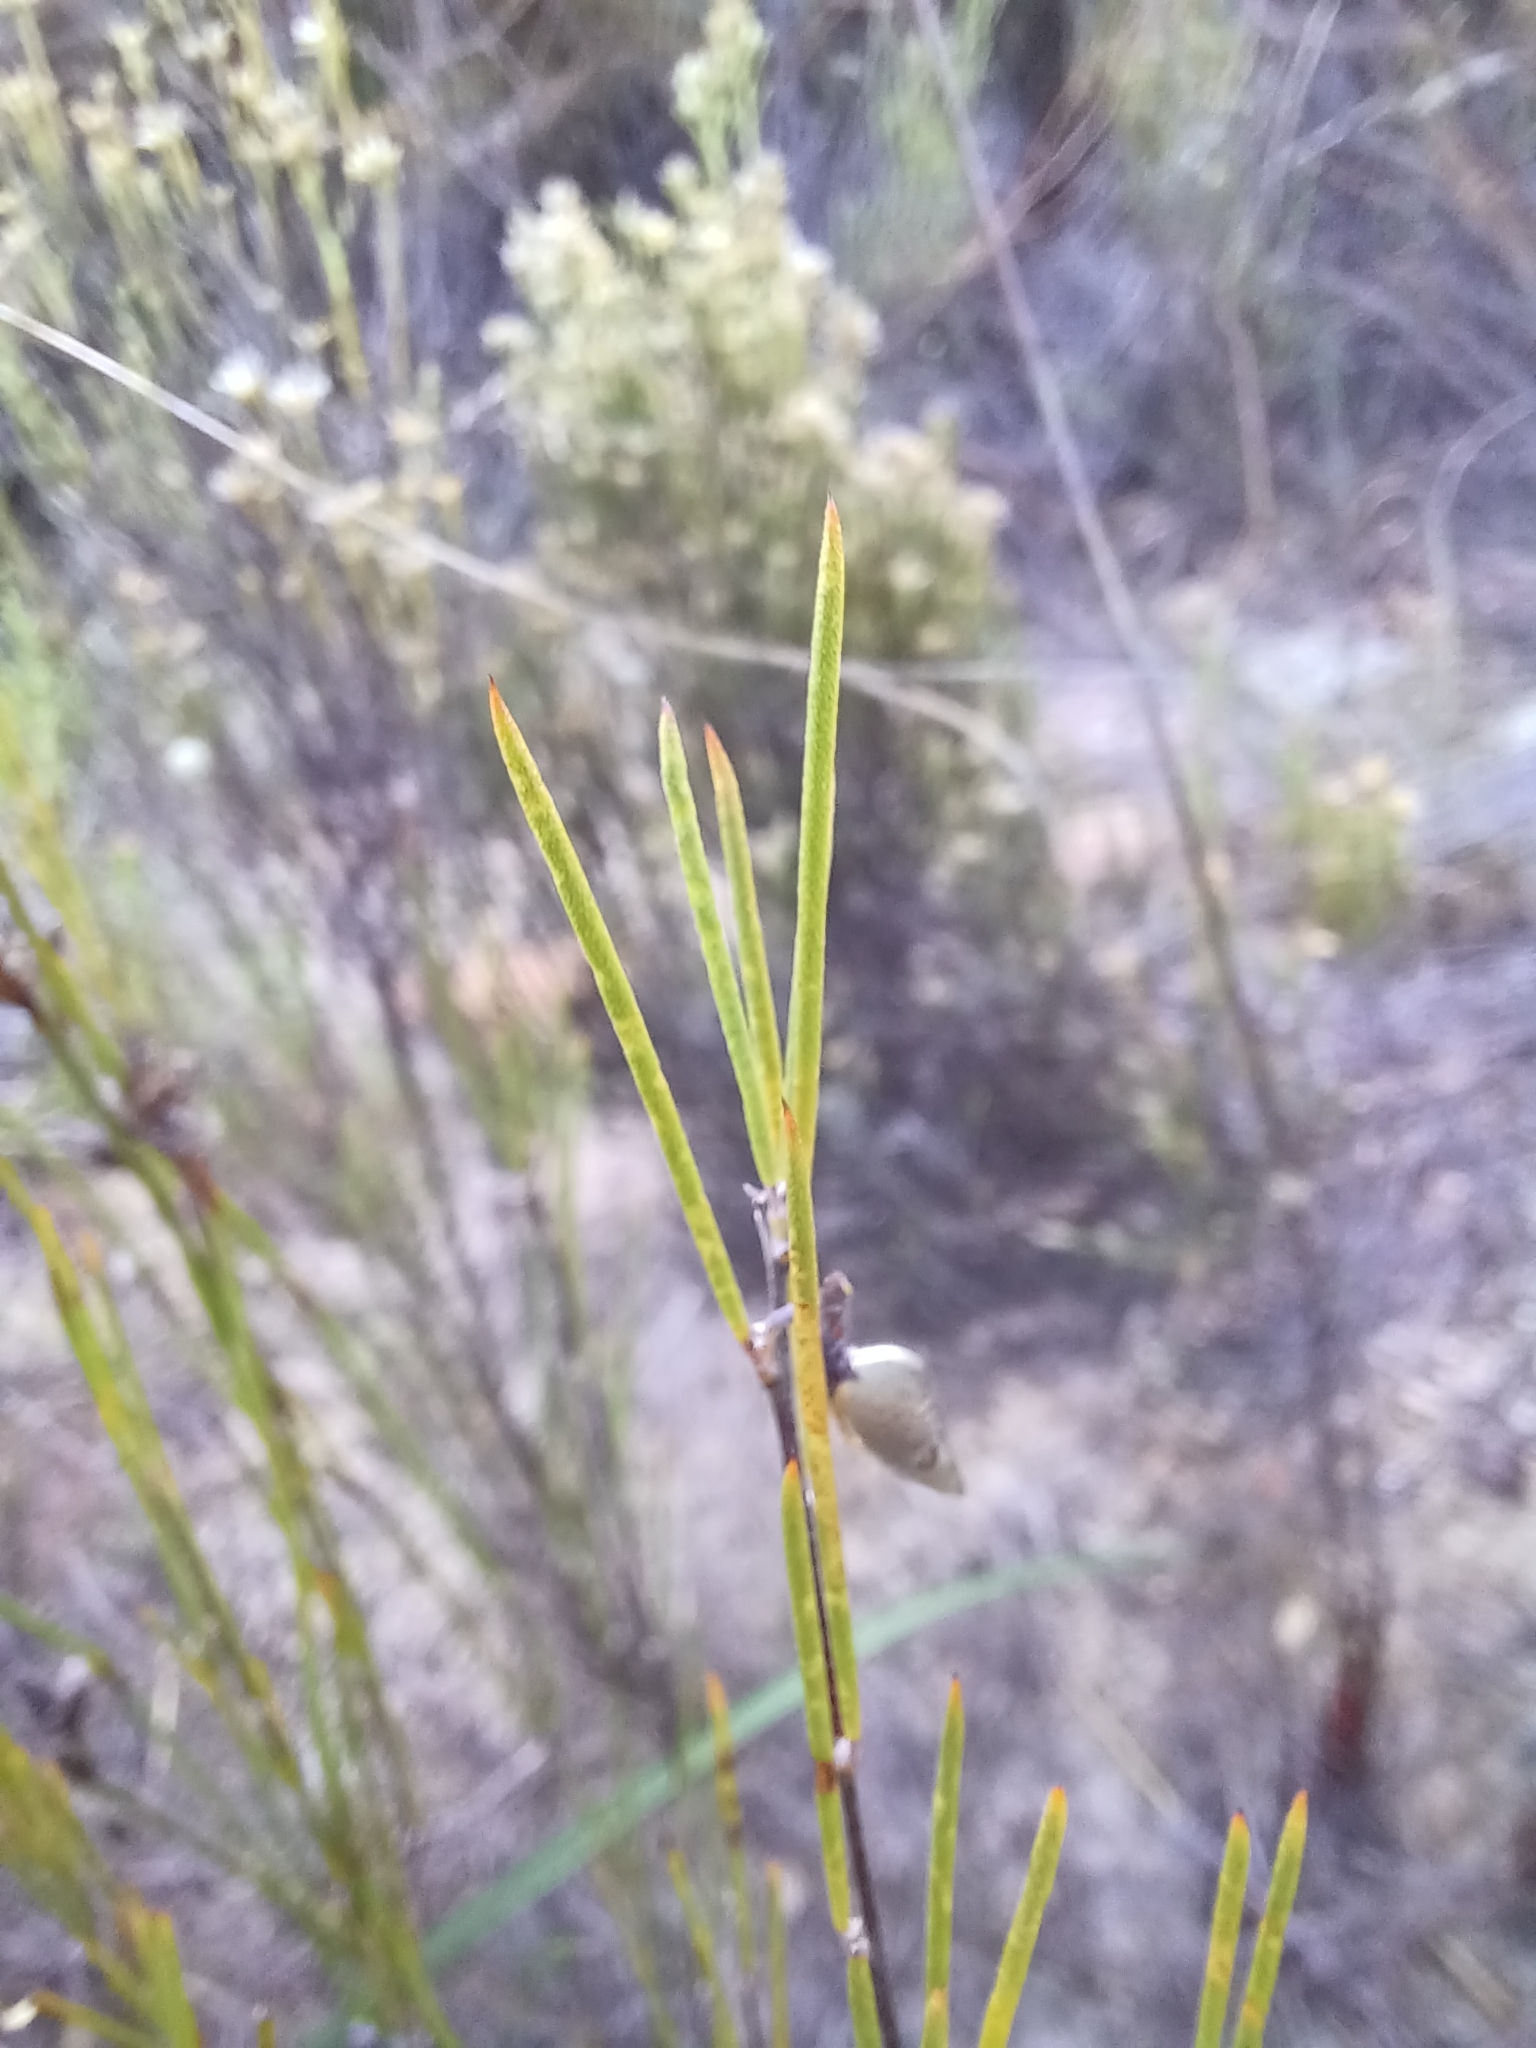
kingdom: Plantae
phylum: Tracheophyta
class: Magnoliopsida
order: Fabales
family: Fabaceae
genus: Aspalathus
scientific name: Aspalathus linearis
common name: Rooibos-tea
